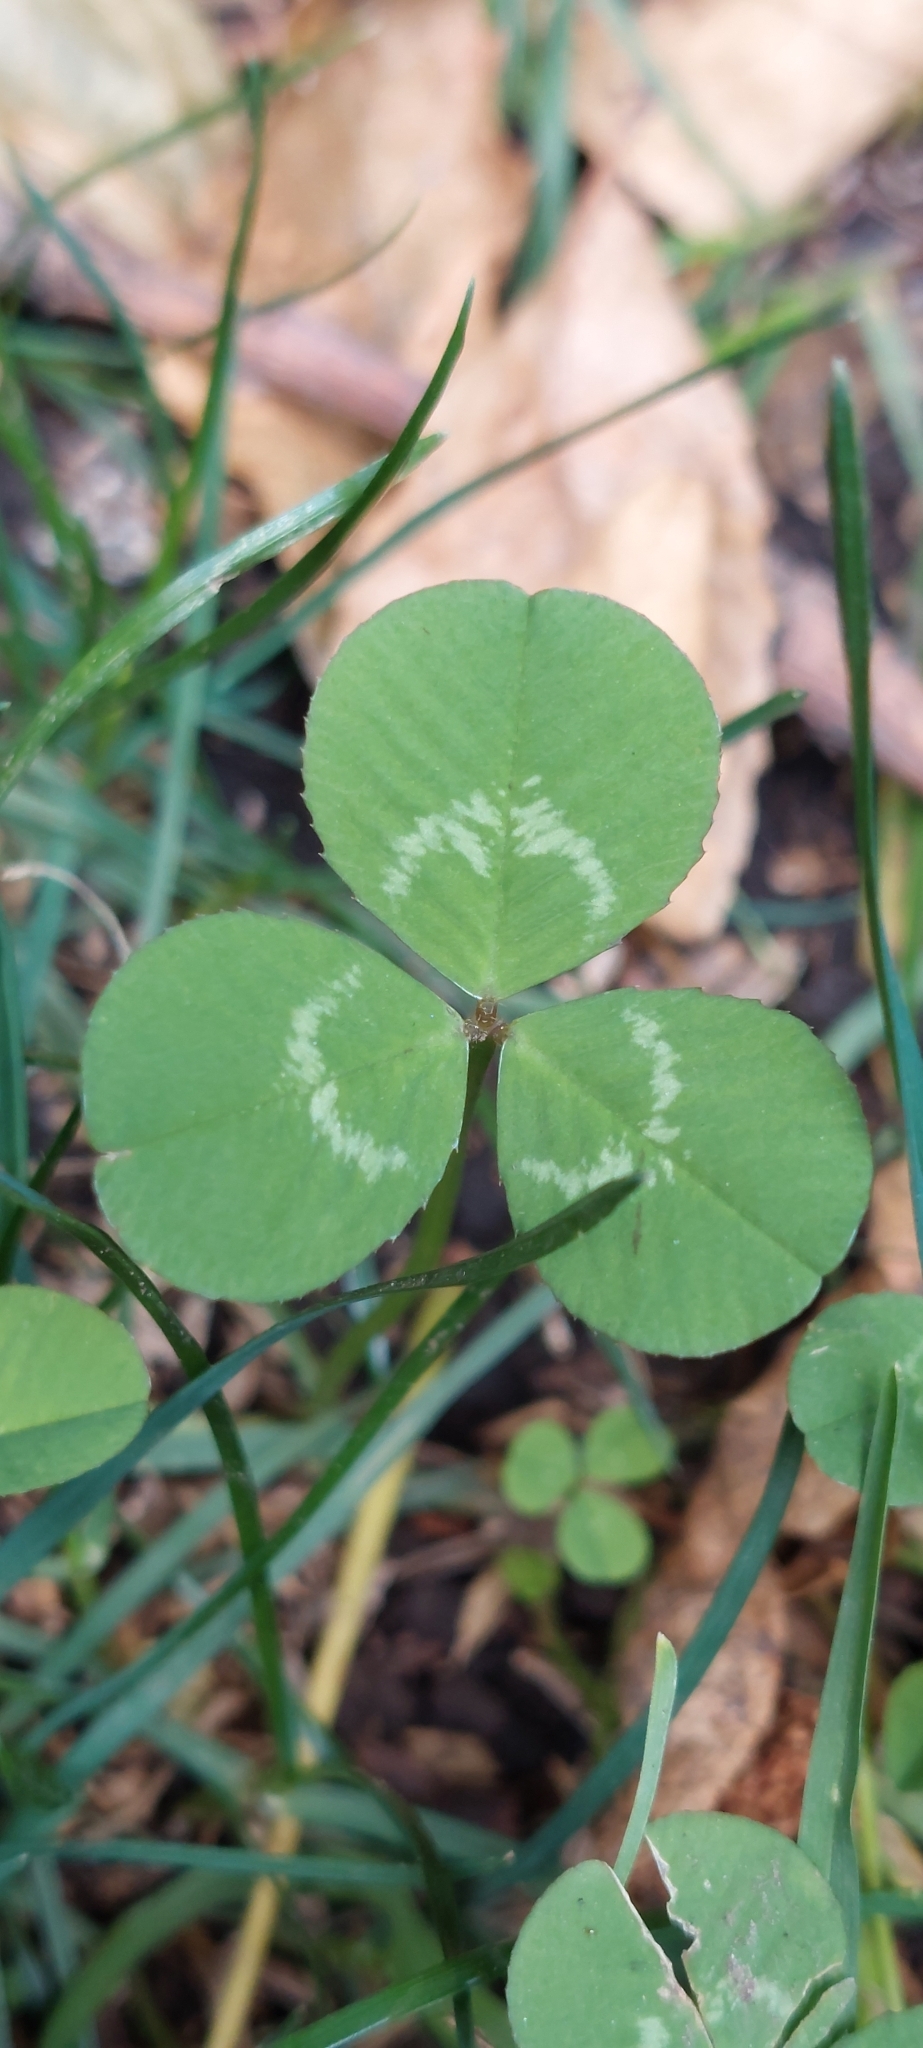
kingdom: Plantae
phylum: Tracheophyta
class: Magnoliopsida
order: Fabales
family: Fabaceae
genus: Trifolium
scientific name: Trifolium repens
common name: White clover
